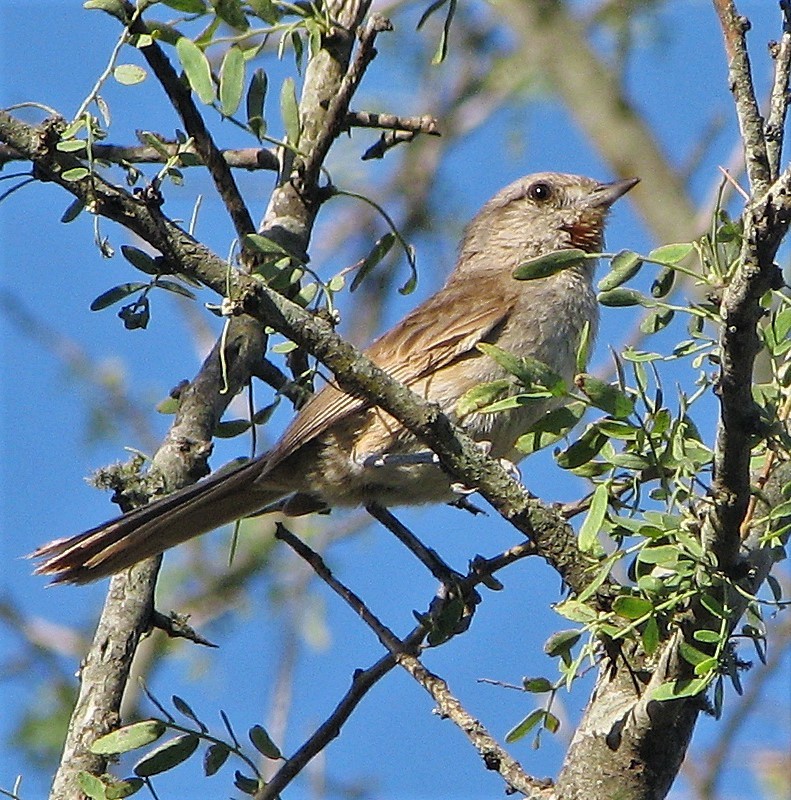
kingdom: Animalia
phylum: Chordata
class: Aves
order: Passeriformes
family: Furnariidae
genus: Asthenes
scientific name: Asthenes baeri
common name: Short-billed canastero
